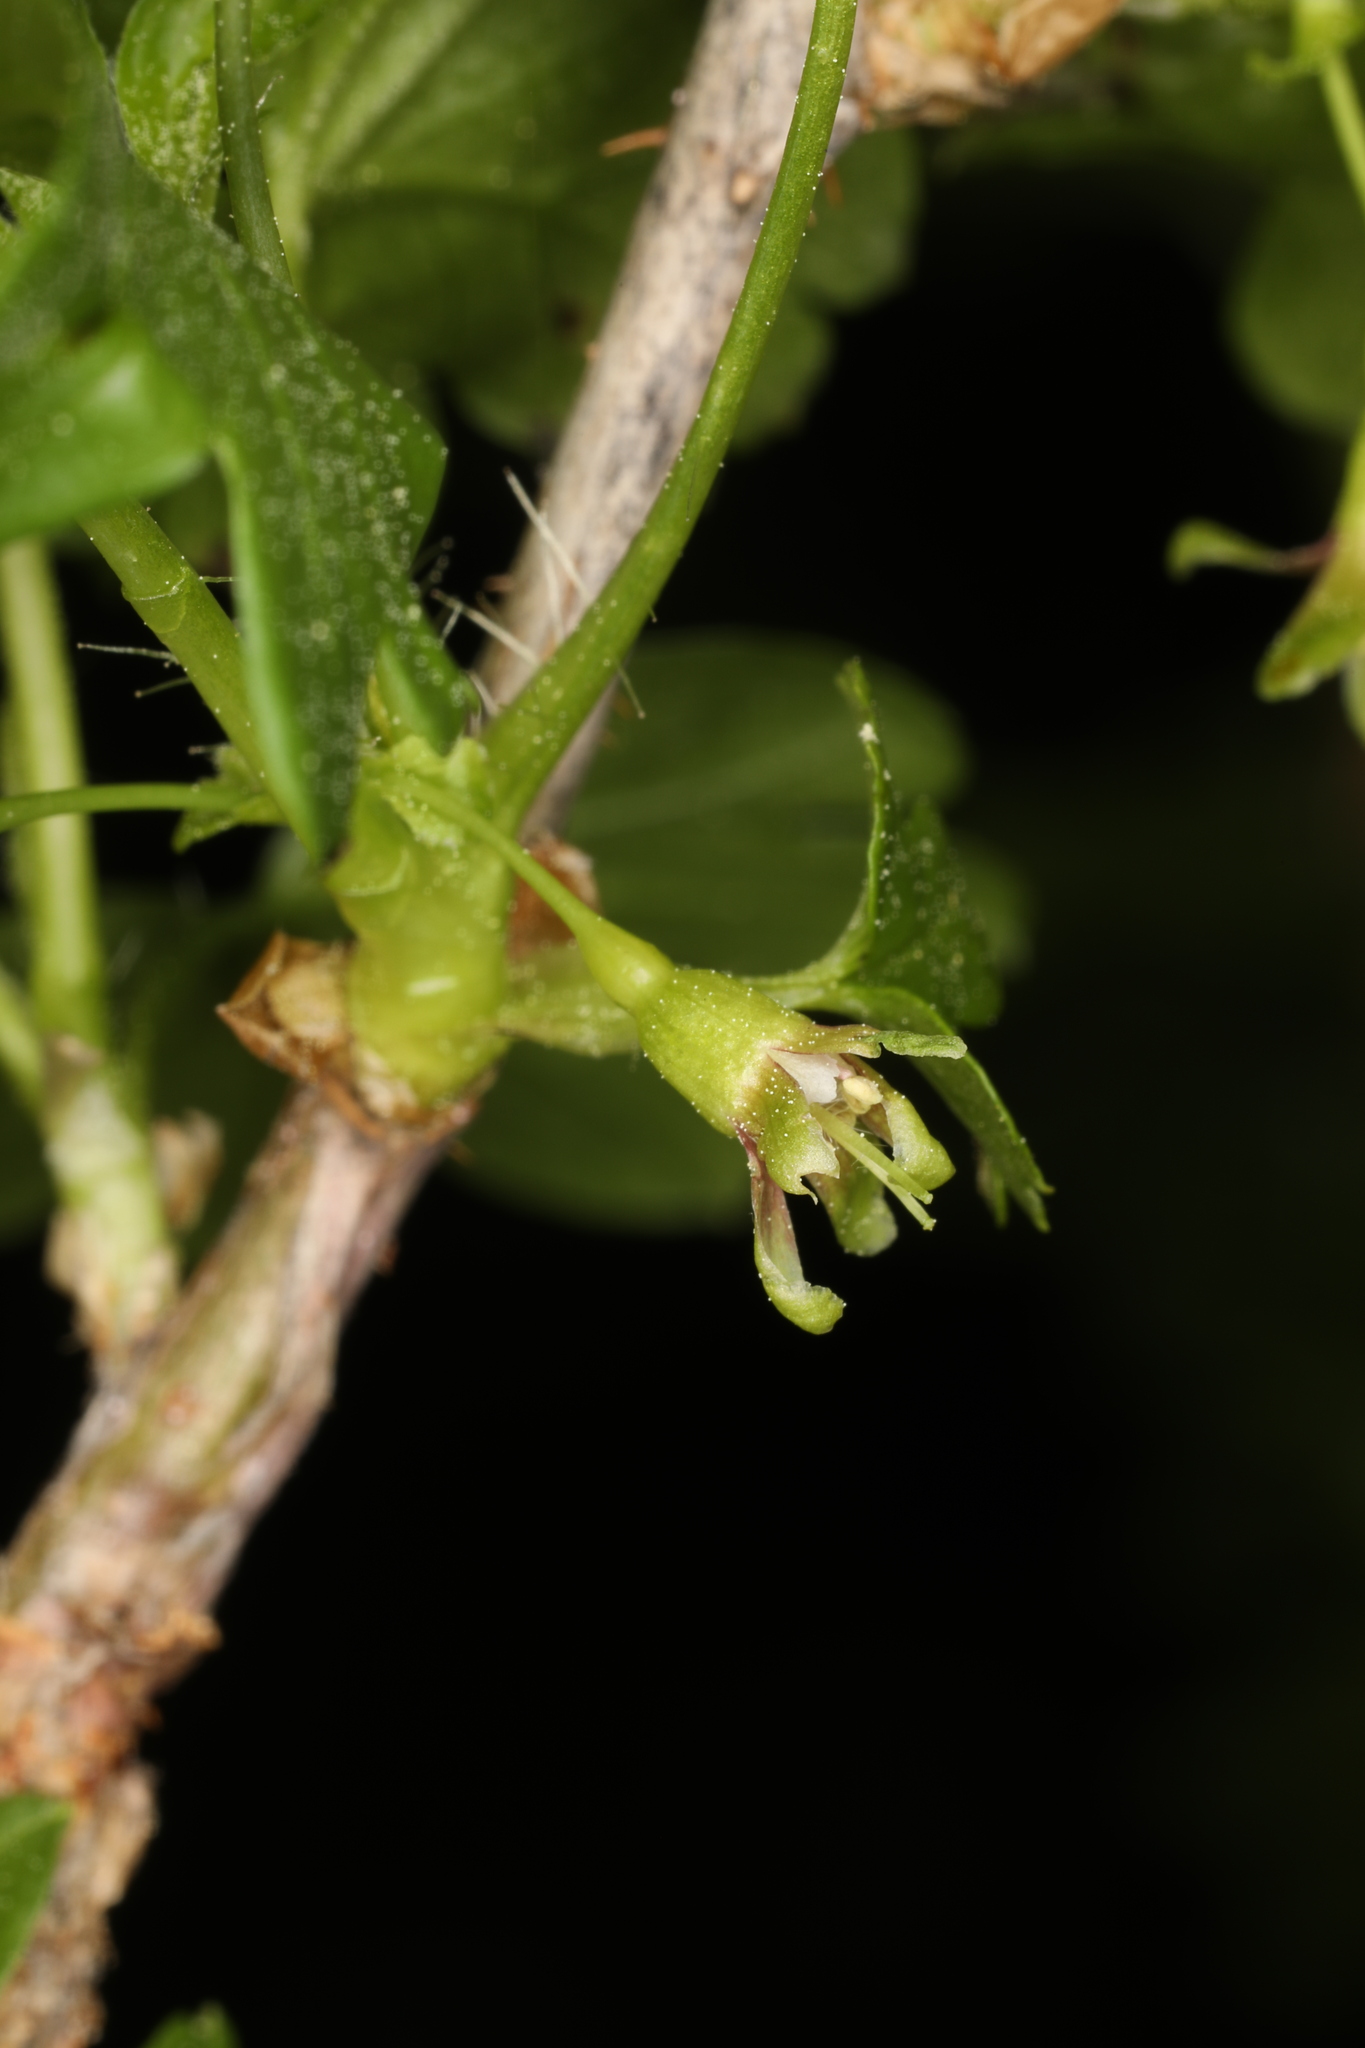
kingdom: Plantae
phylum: Tracheophyta
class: Magnoliopsida
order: Saxifragales
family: Grossulariaceae
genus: Ribes
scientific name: Ribes inerme
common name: White-stem gooseberry
